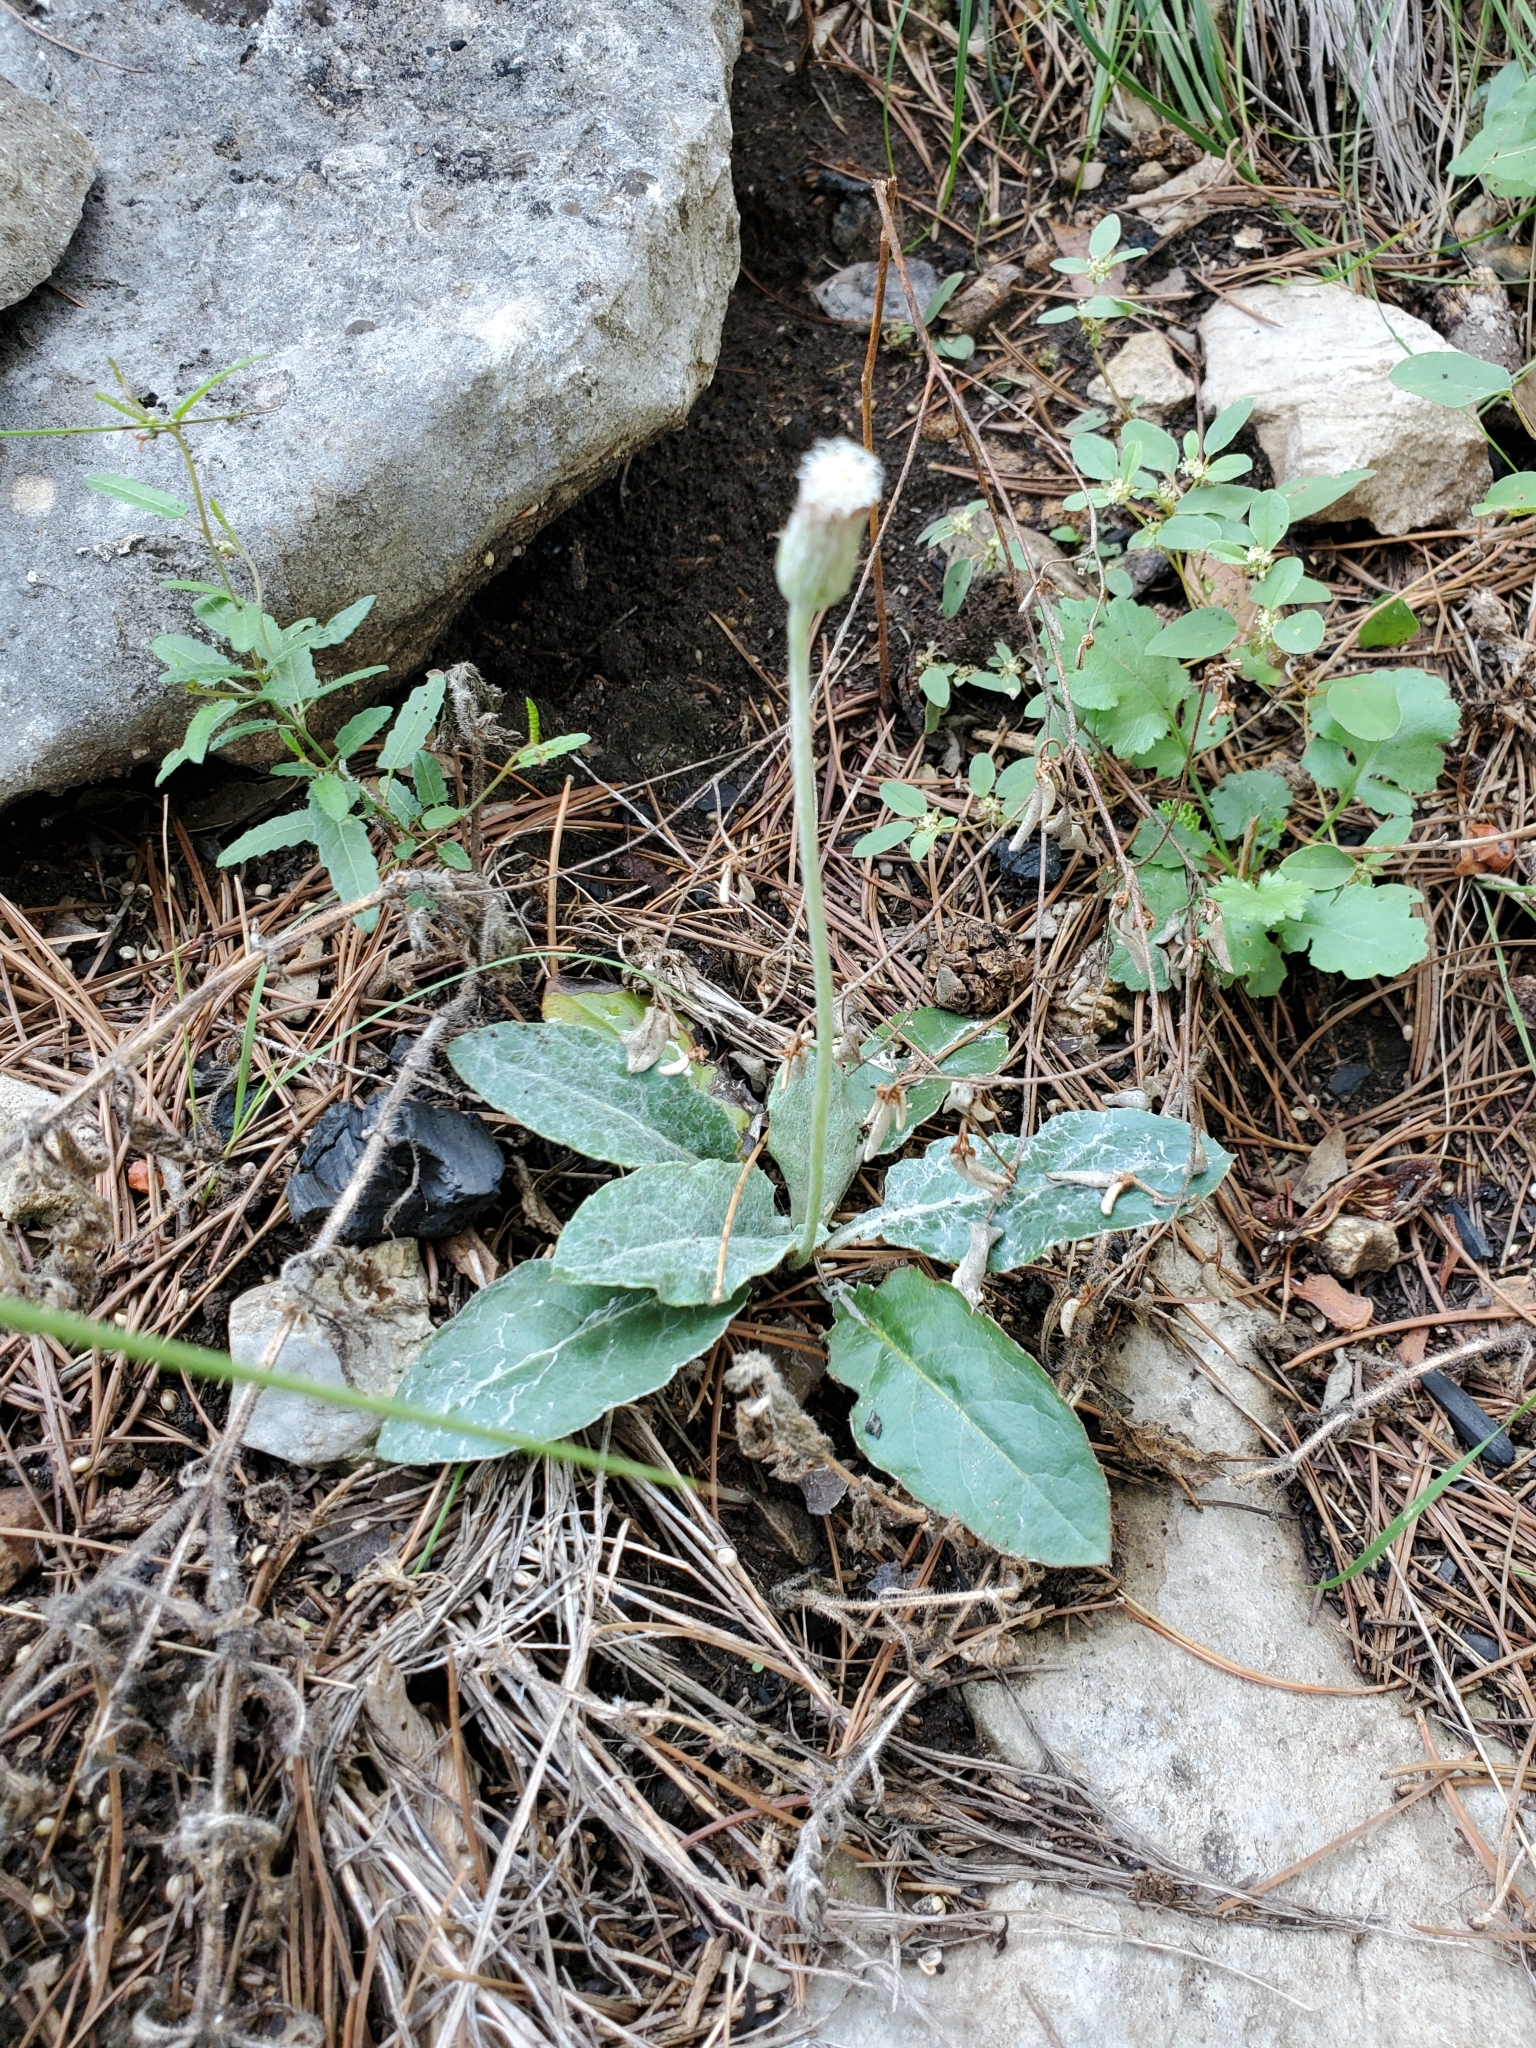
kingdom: Plantae
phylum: Tracheophyta
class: Magnoliopsida
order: Asterales
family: Asteraceae
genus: Chaptalia
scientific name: Chaptalia texana
